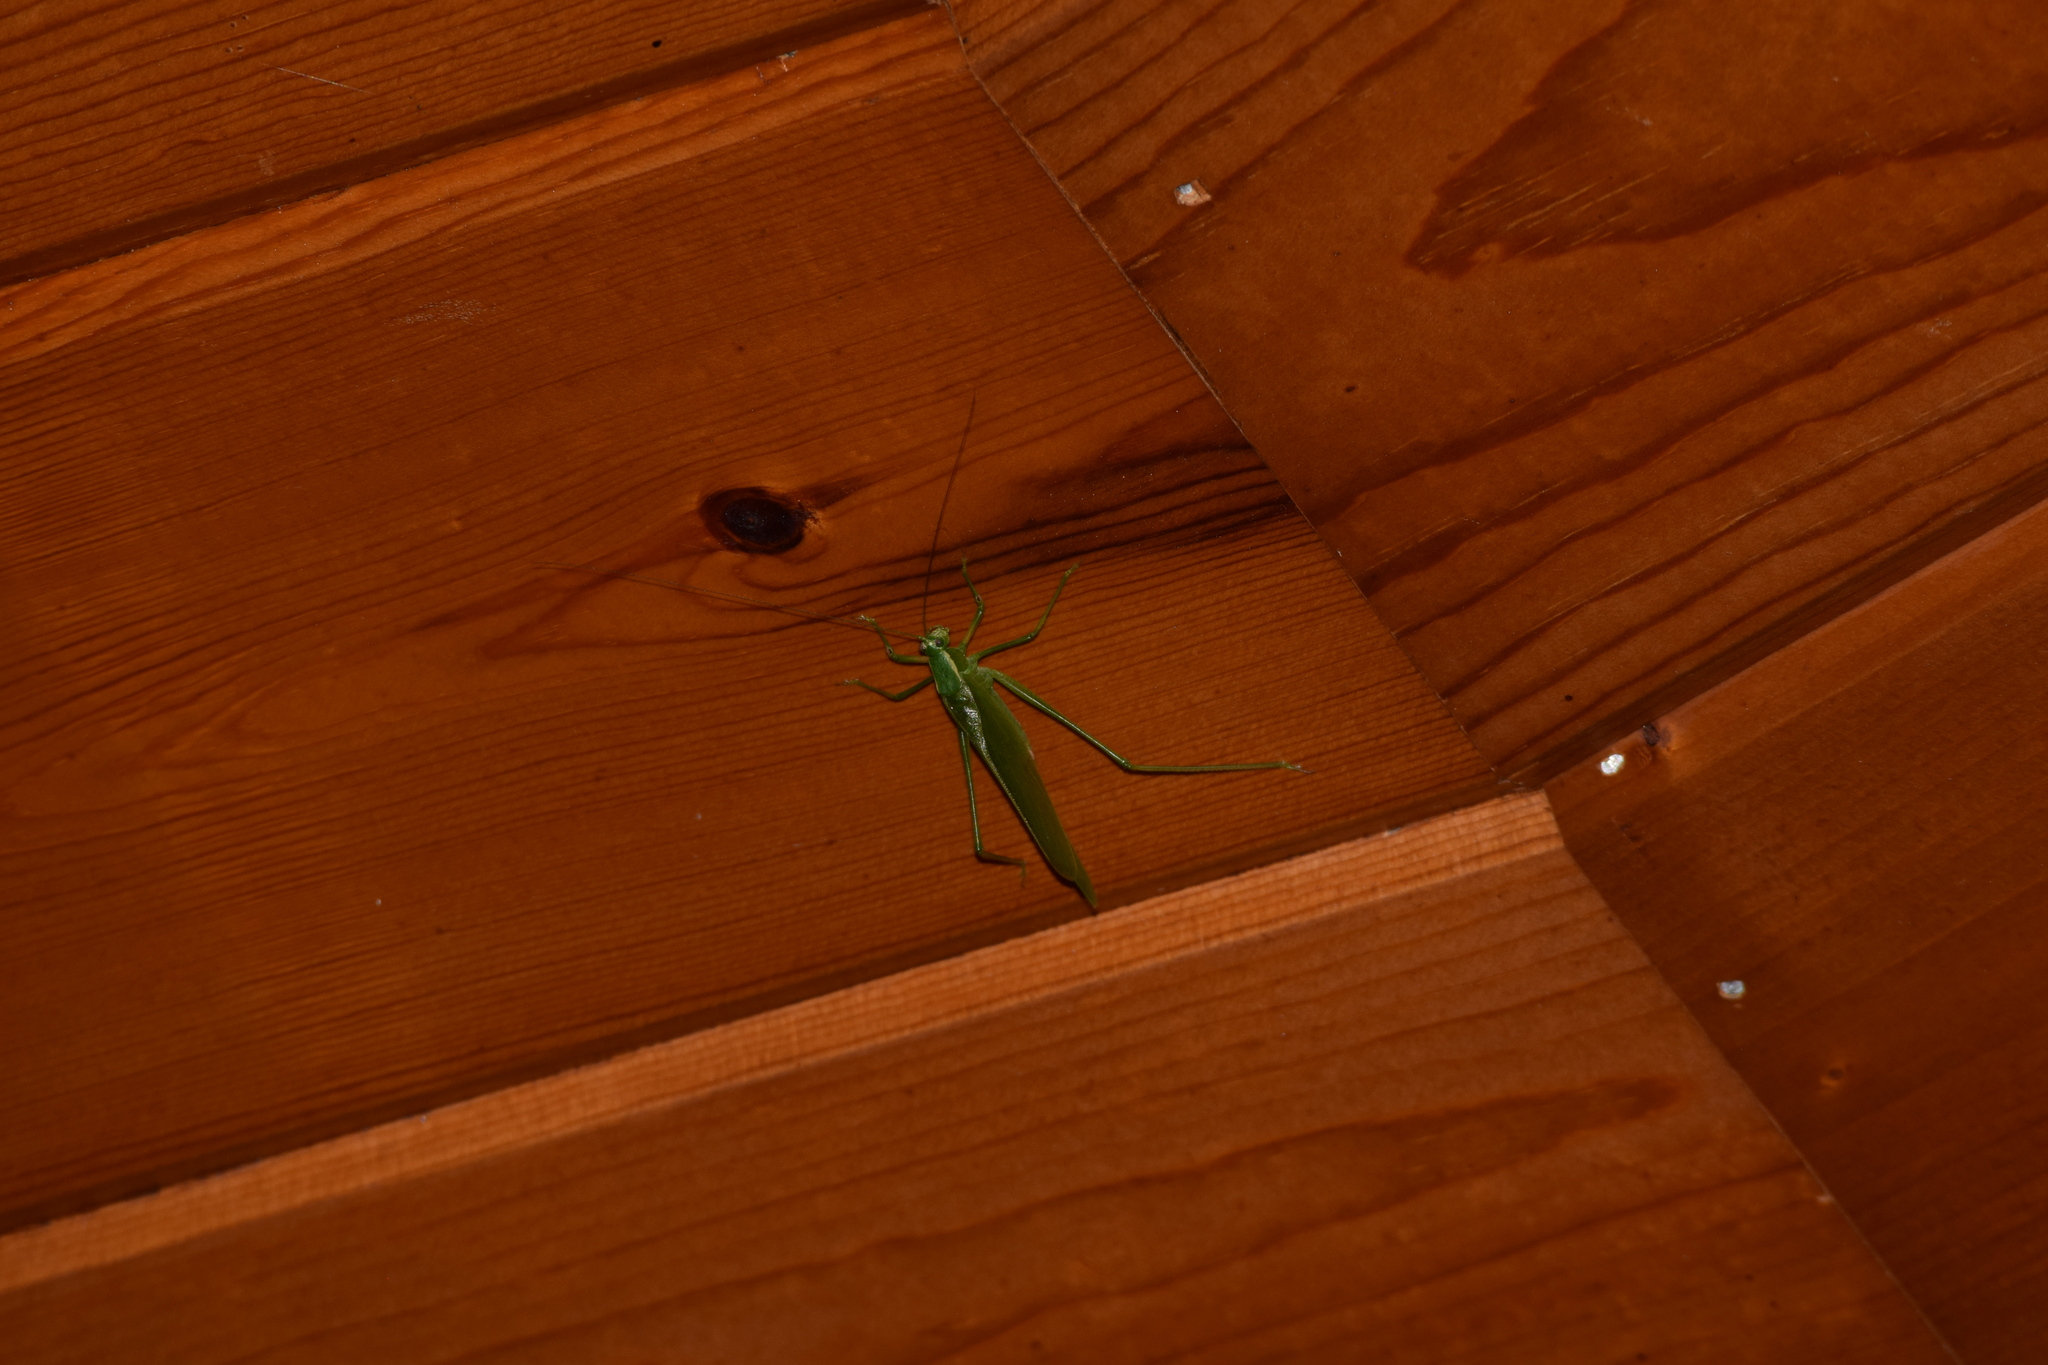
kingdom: Animalia
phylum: Arthropoda
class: Insecta
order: Orthoptera
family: Tettigoniidae
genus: Scudderia
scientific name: Scudderia septentrionalis
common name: Northern bush-katydid
